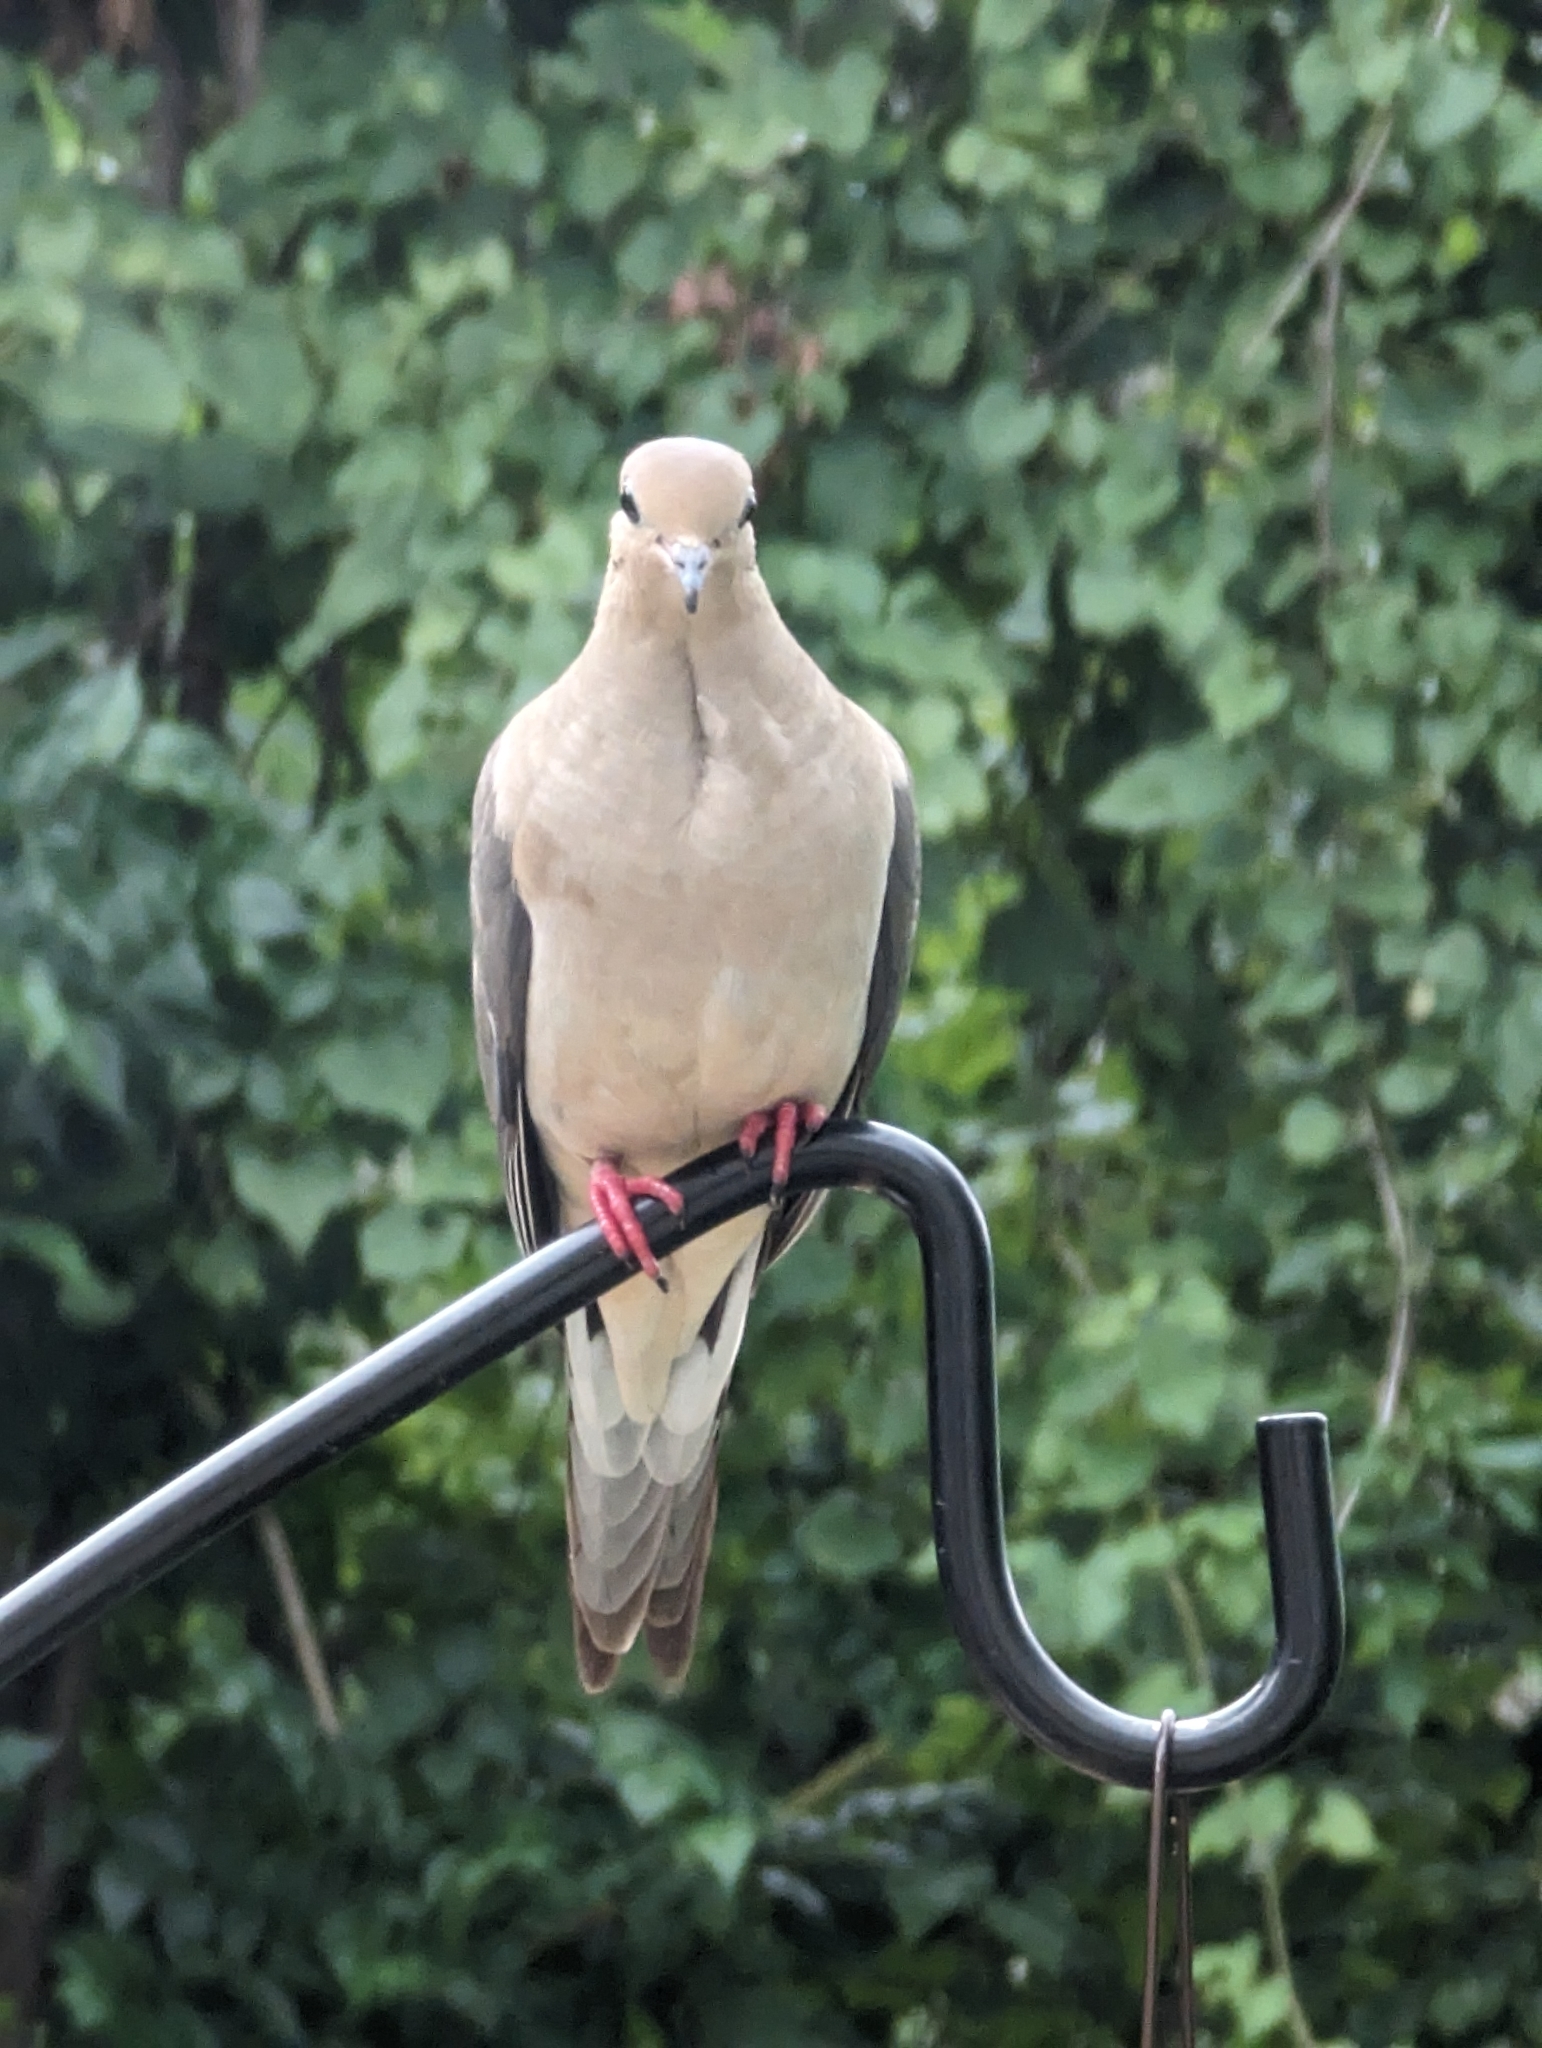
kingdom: Animalia
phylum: Chordata
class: Aves
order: Columbiformes
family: Columbidae
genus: Zenaida
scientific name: Zenaida macroura
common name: Mourning dove
